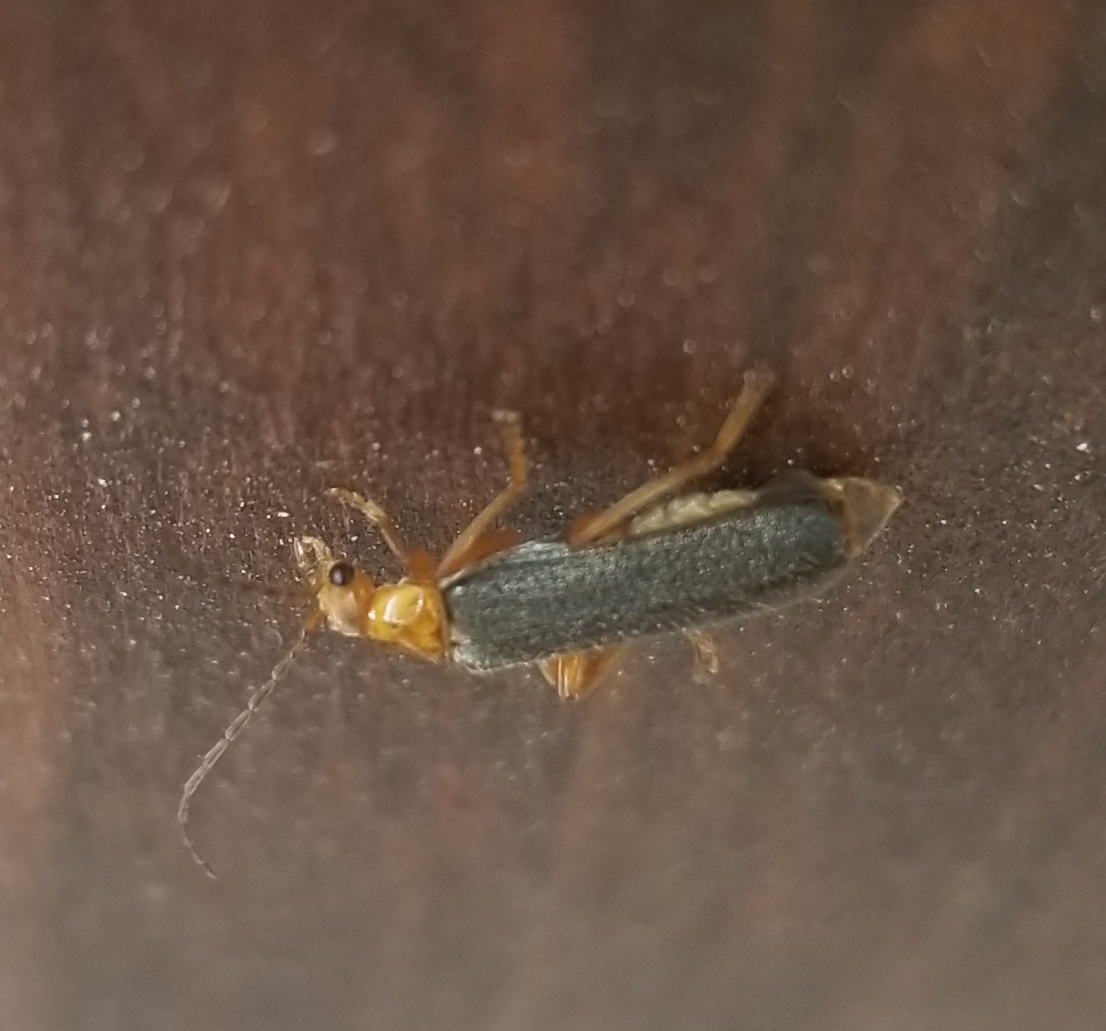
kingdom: Animalia
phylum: Arthropoda
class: Insecta
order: Coleoptera
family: Cantharidae
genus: Cultellunguis
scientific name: Cultellunguis perpallens
